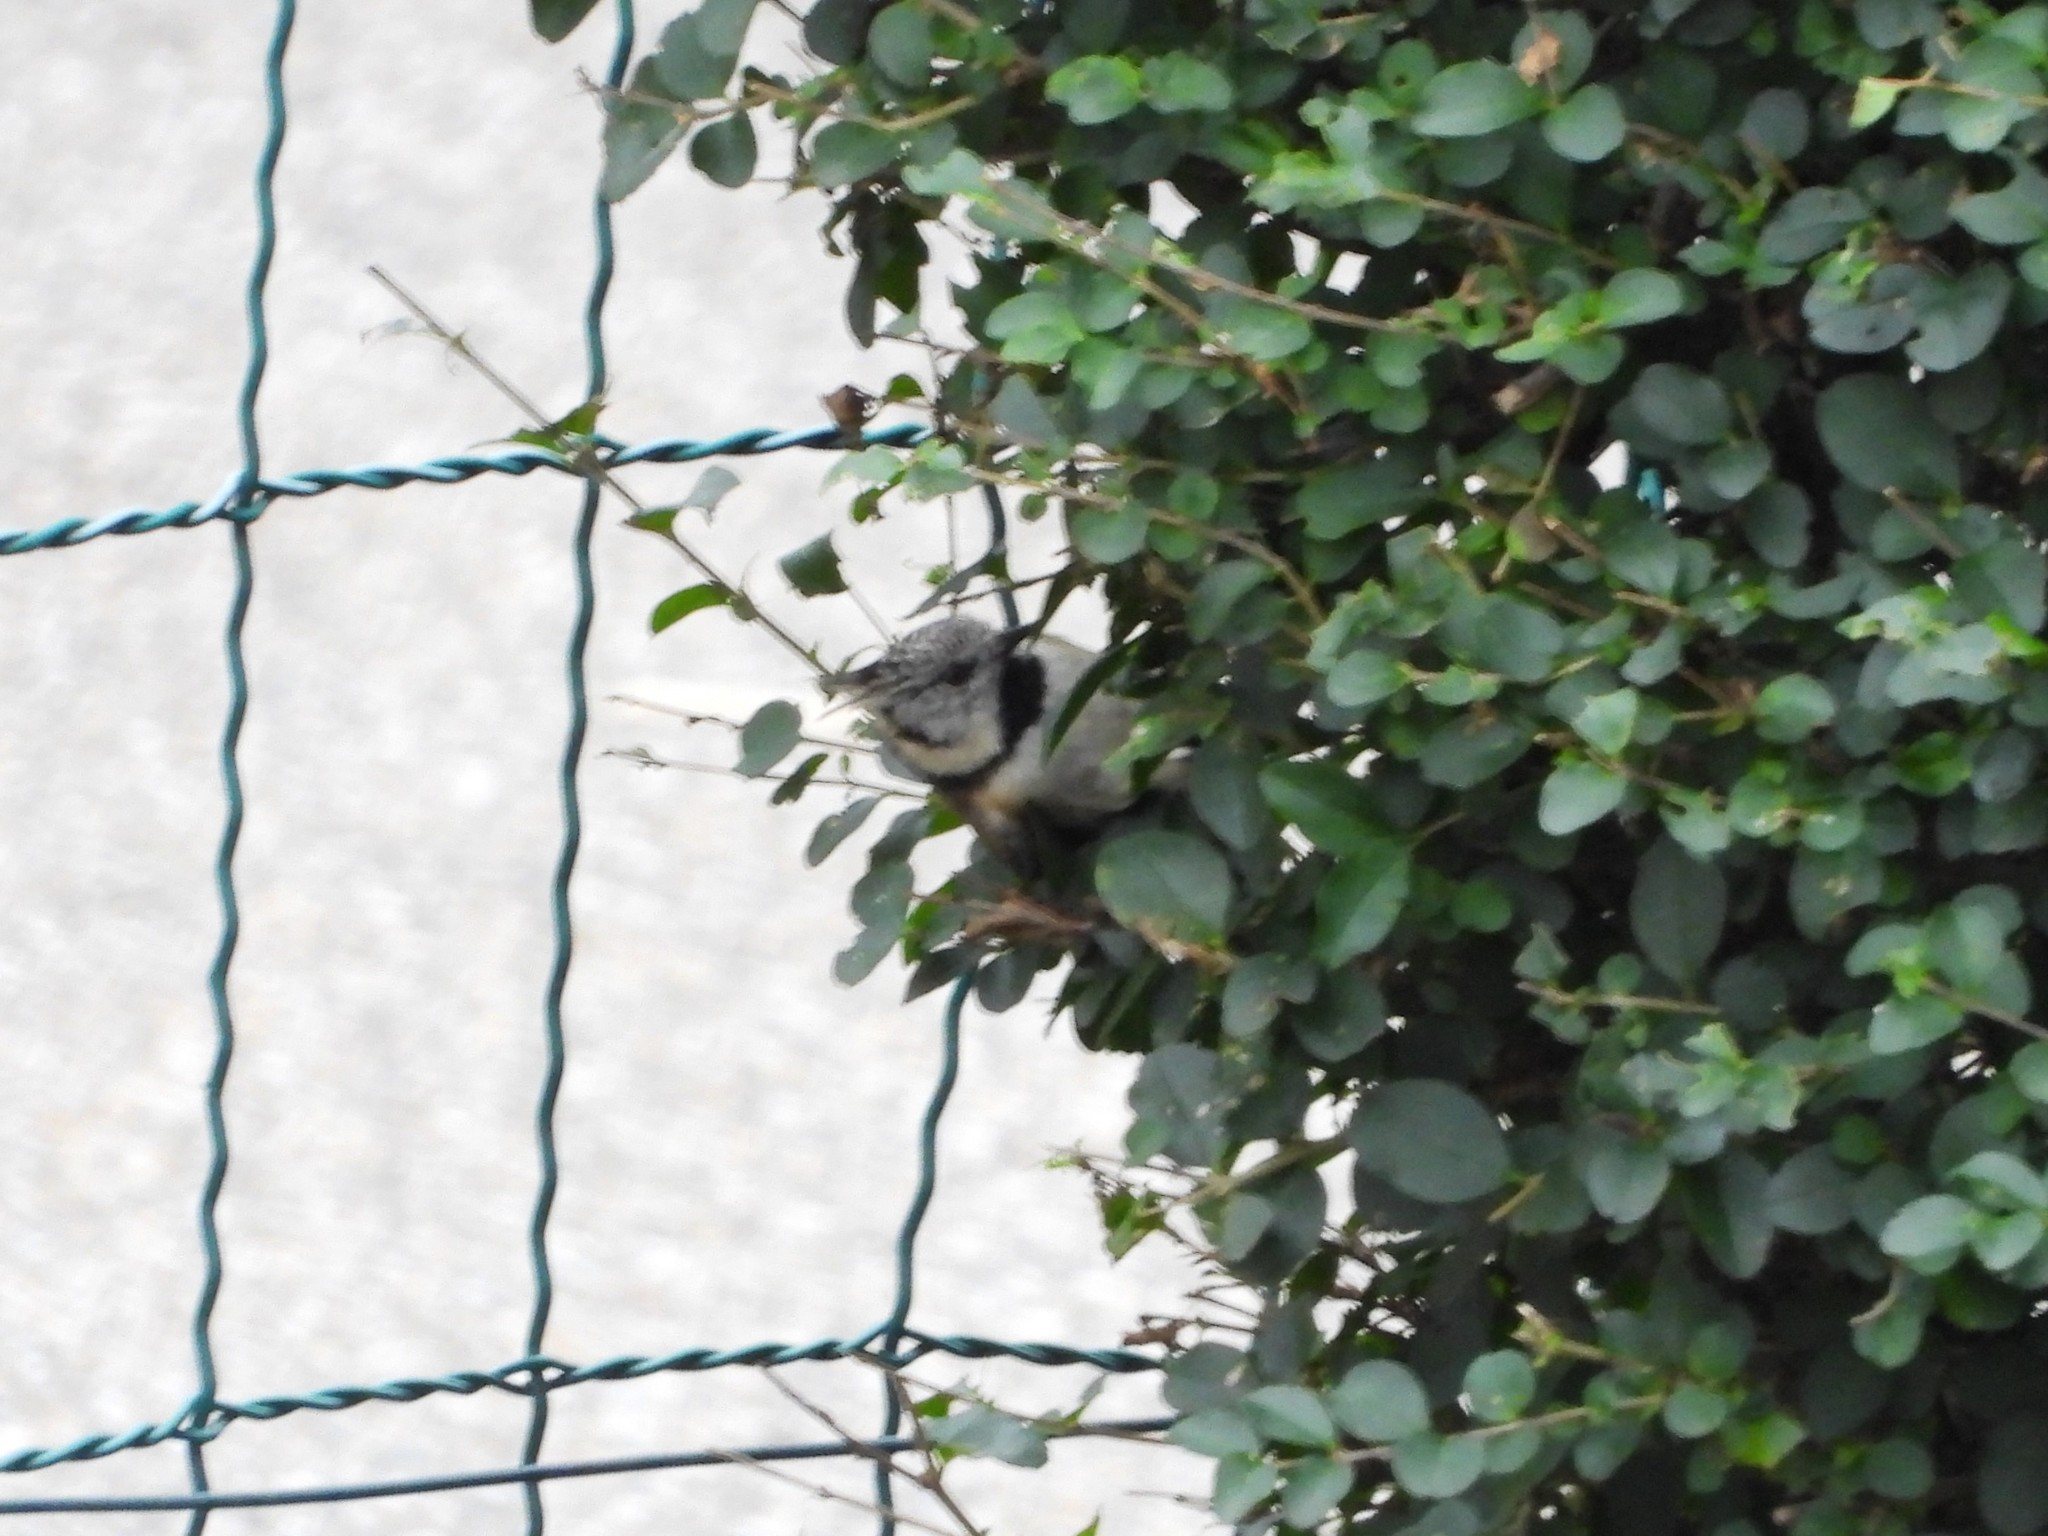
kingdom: Animalia
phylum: Chordata
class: Aves
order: Passeriformes
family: Paridae
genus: Lophophanes
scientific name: Lophophanes cristatus
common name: European crested tit
